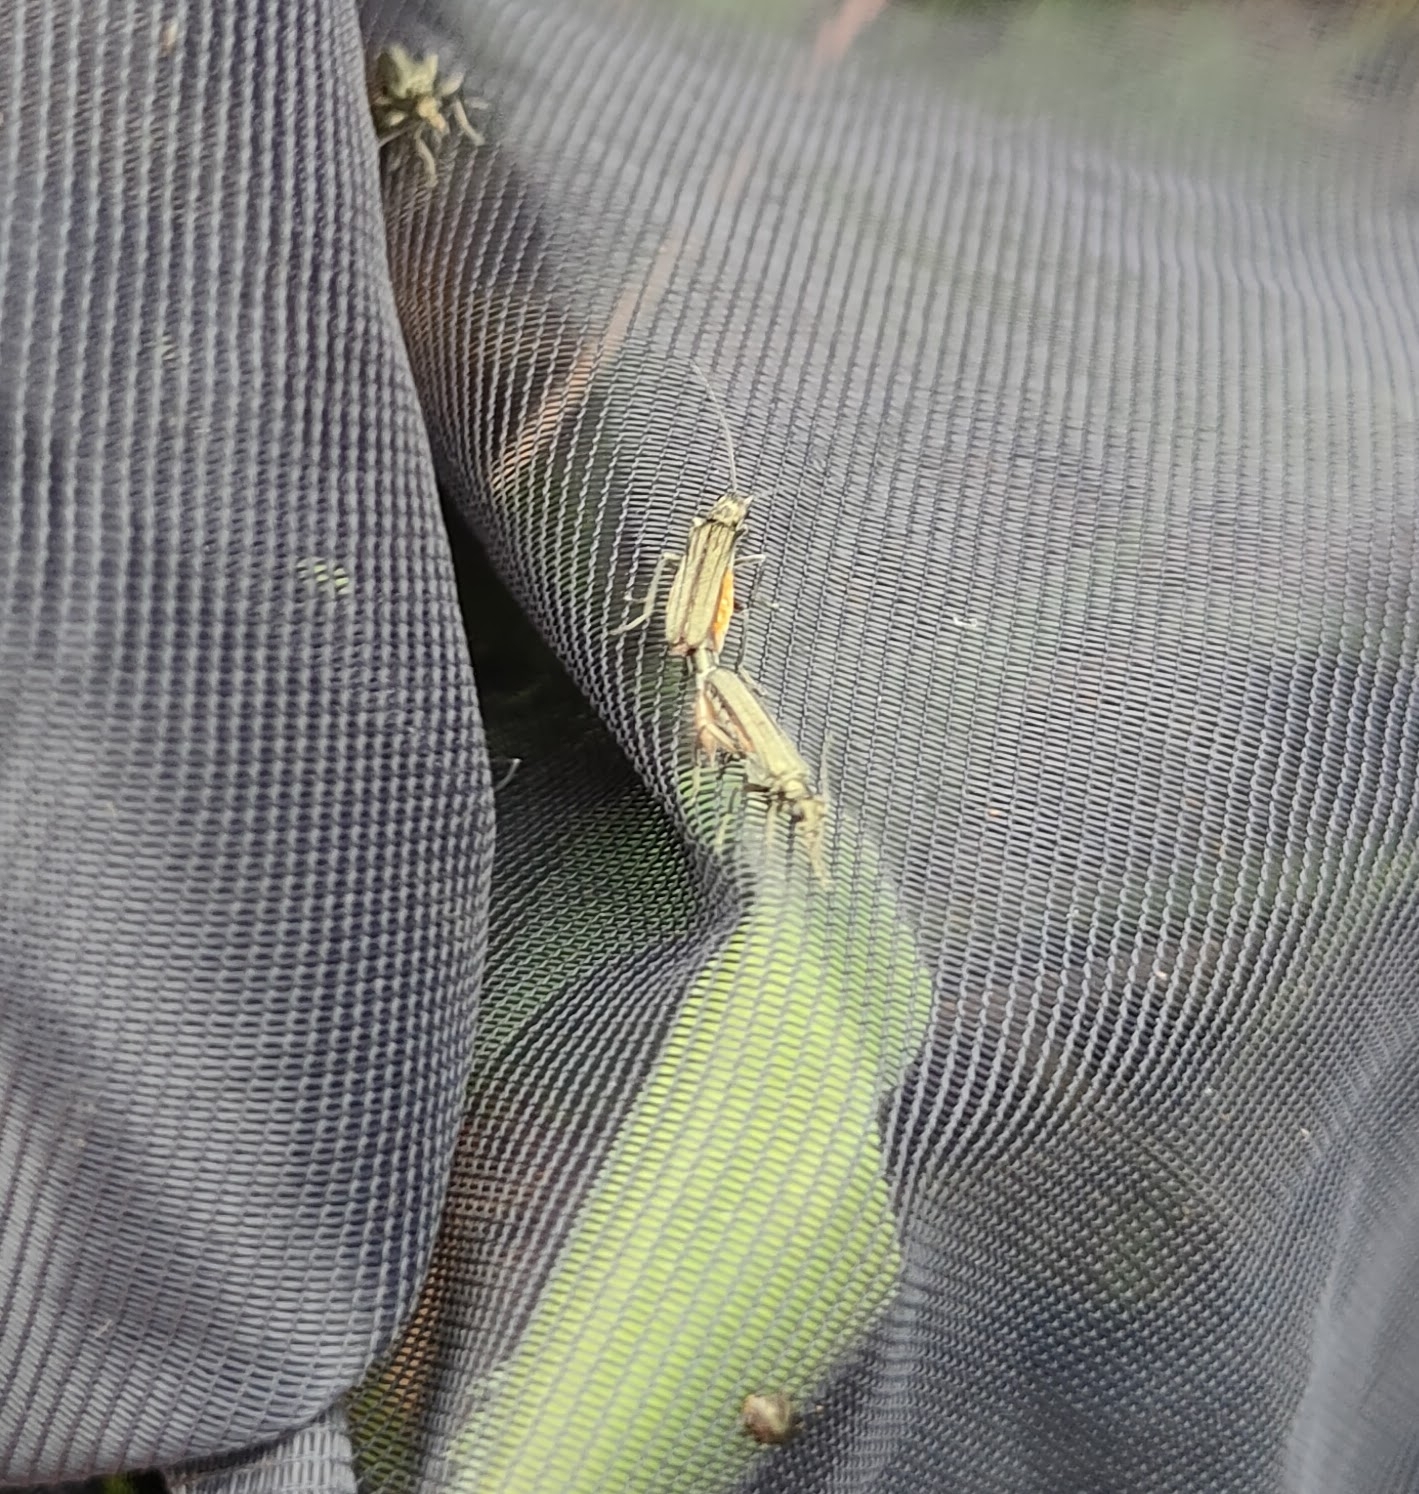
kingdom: Animalia
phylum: Arthropoda
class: Insecta
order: Coleoptera
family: Oedemeridae
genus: Oedemera
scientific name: Oedemera lurida
